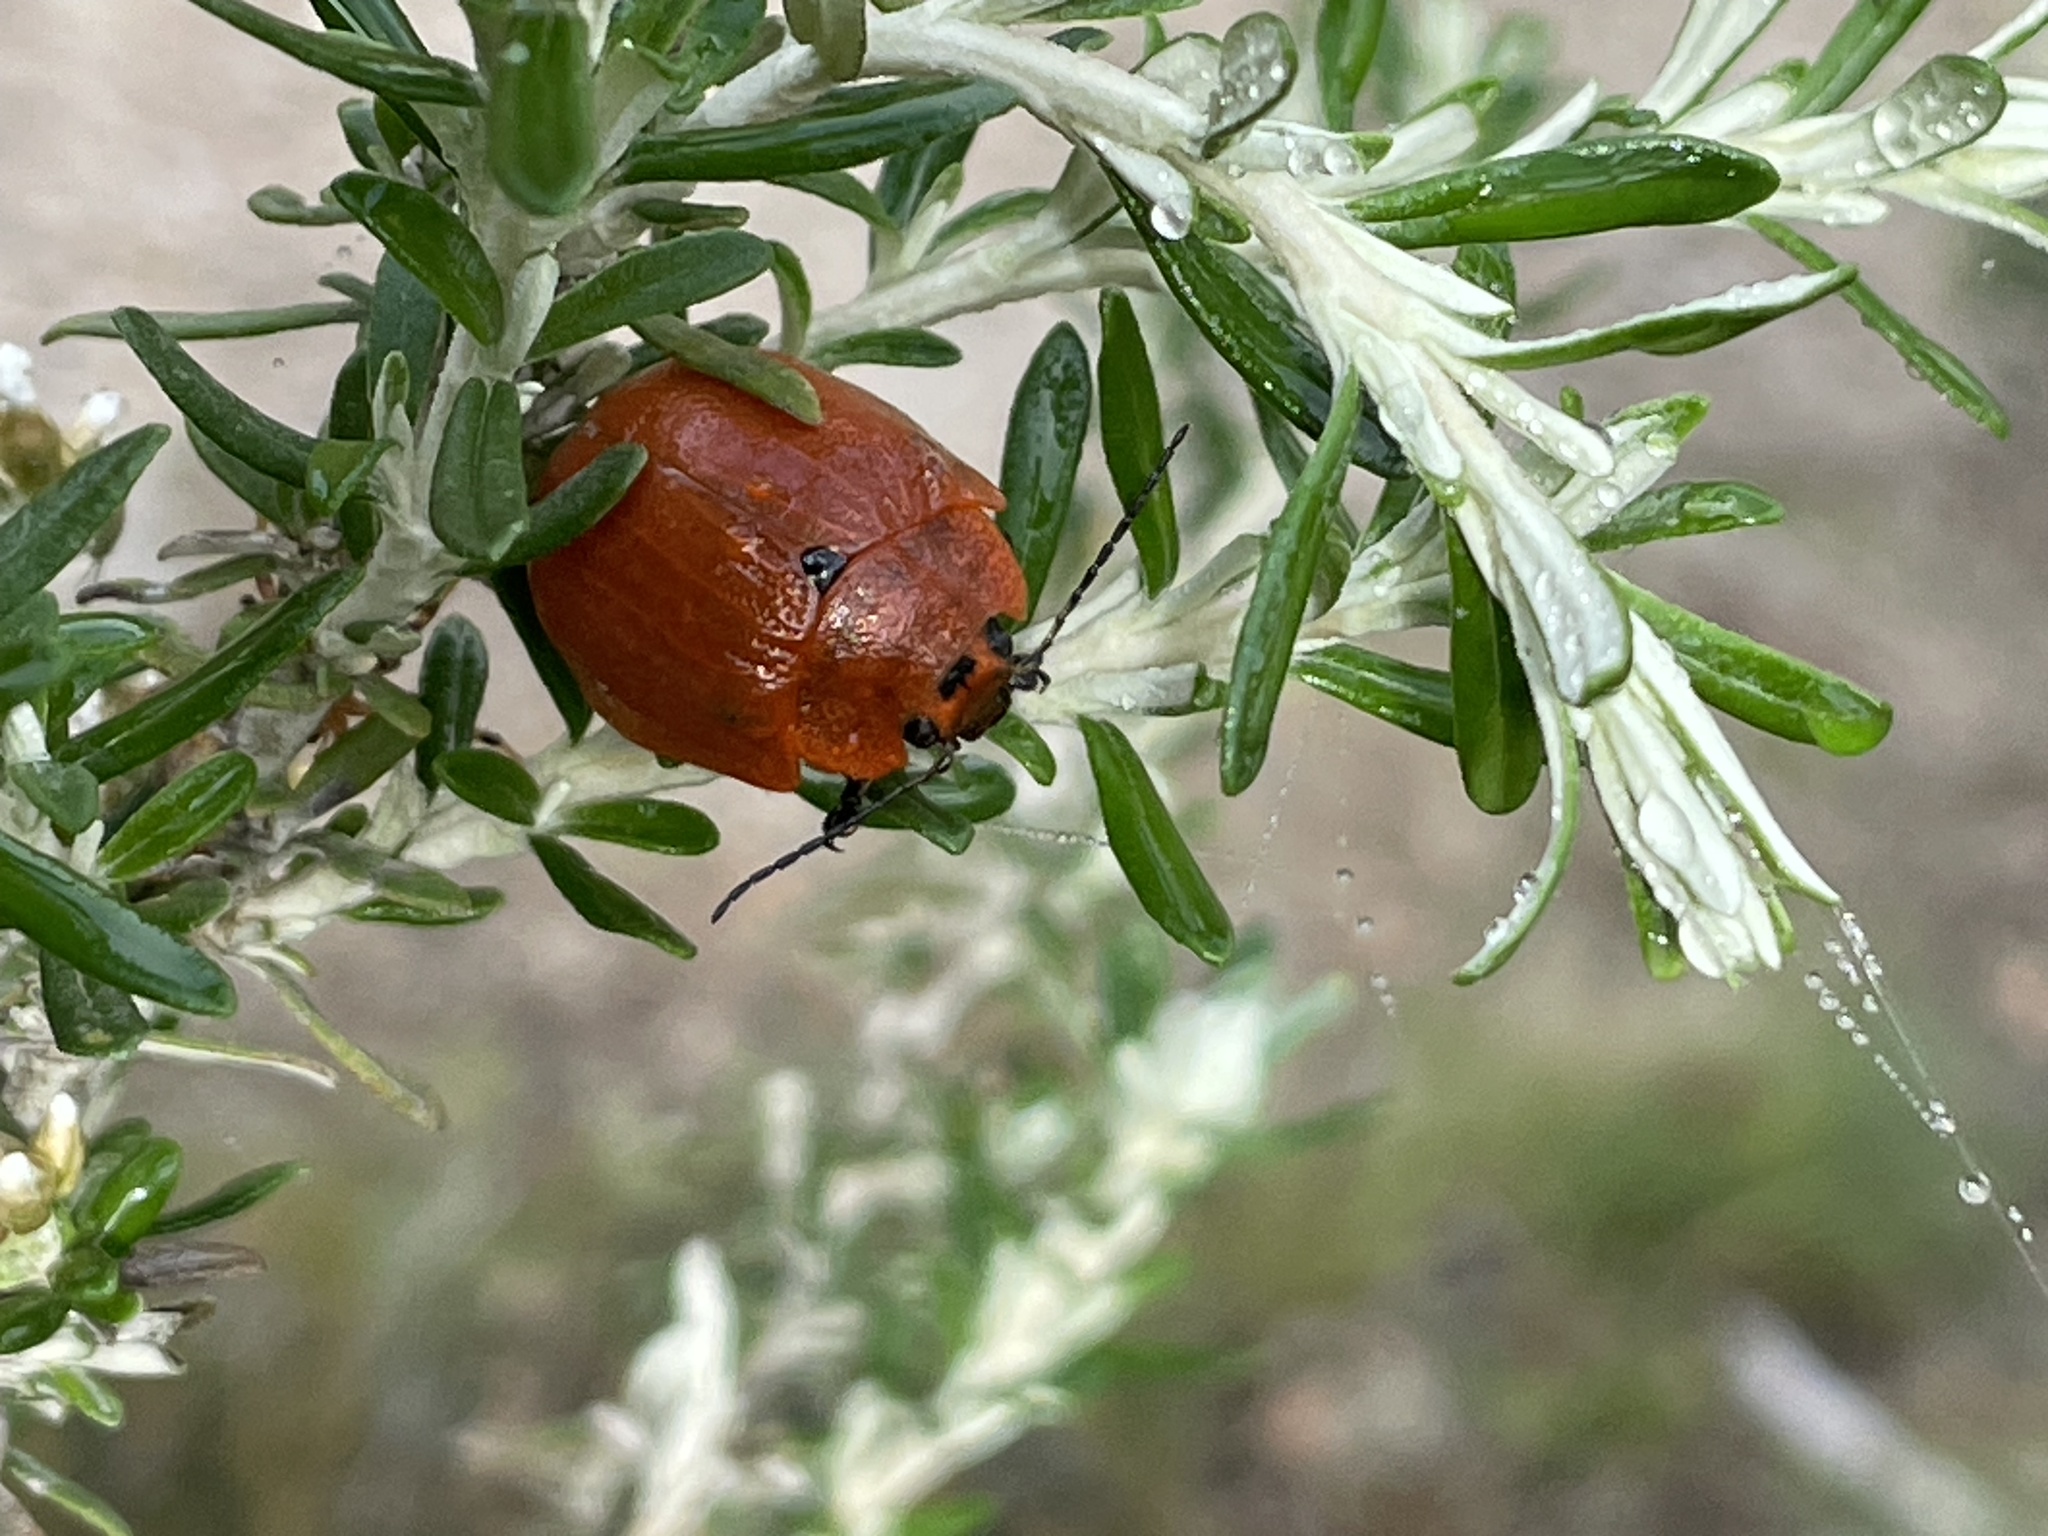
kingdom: Animalia
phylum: Arthropoda
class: Insecta
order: Coleoptera
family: Chrysomelidae
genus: Paropsis
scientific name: Paropsis
